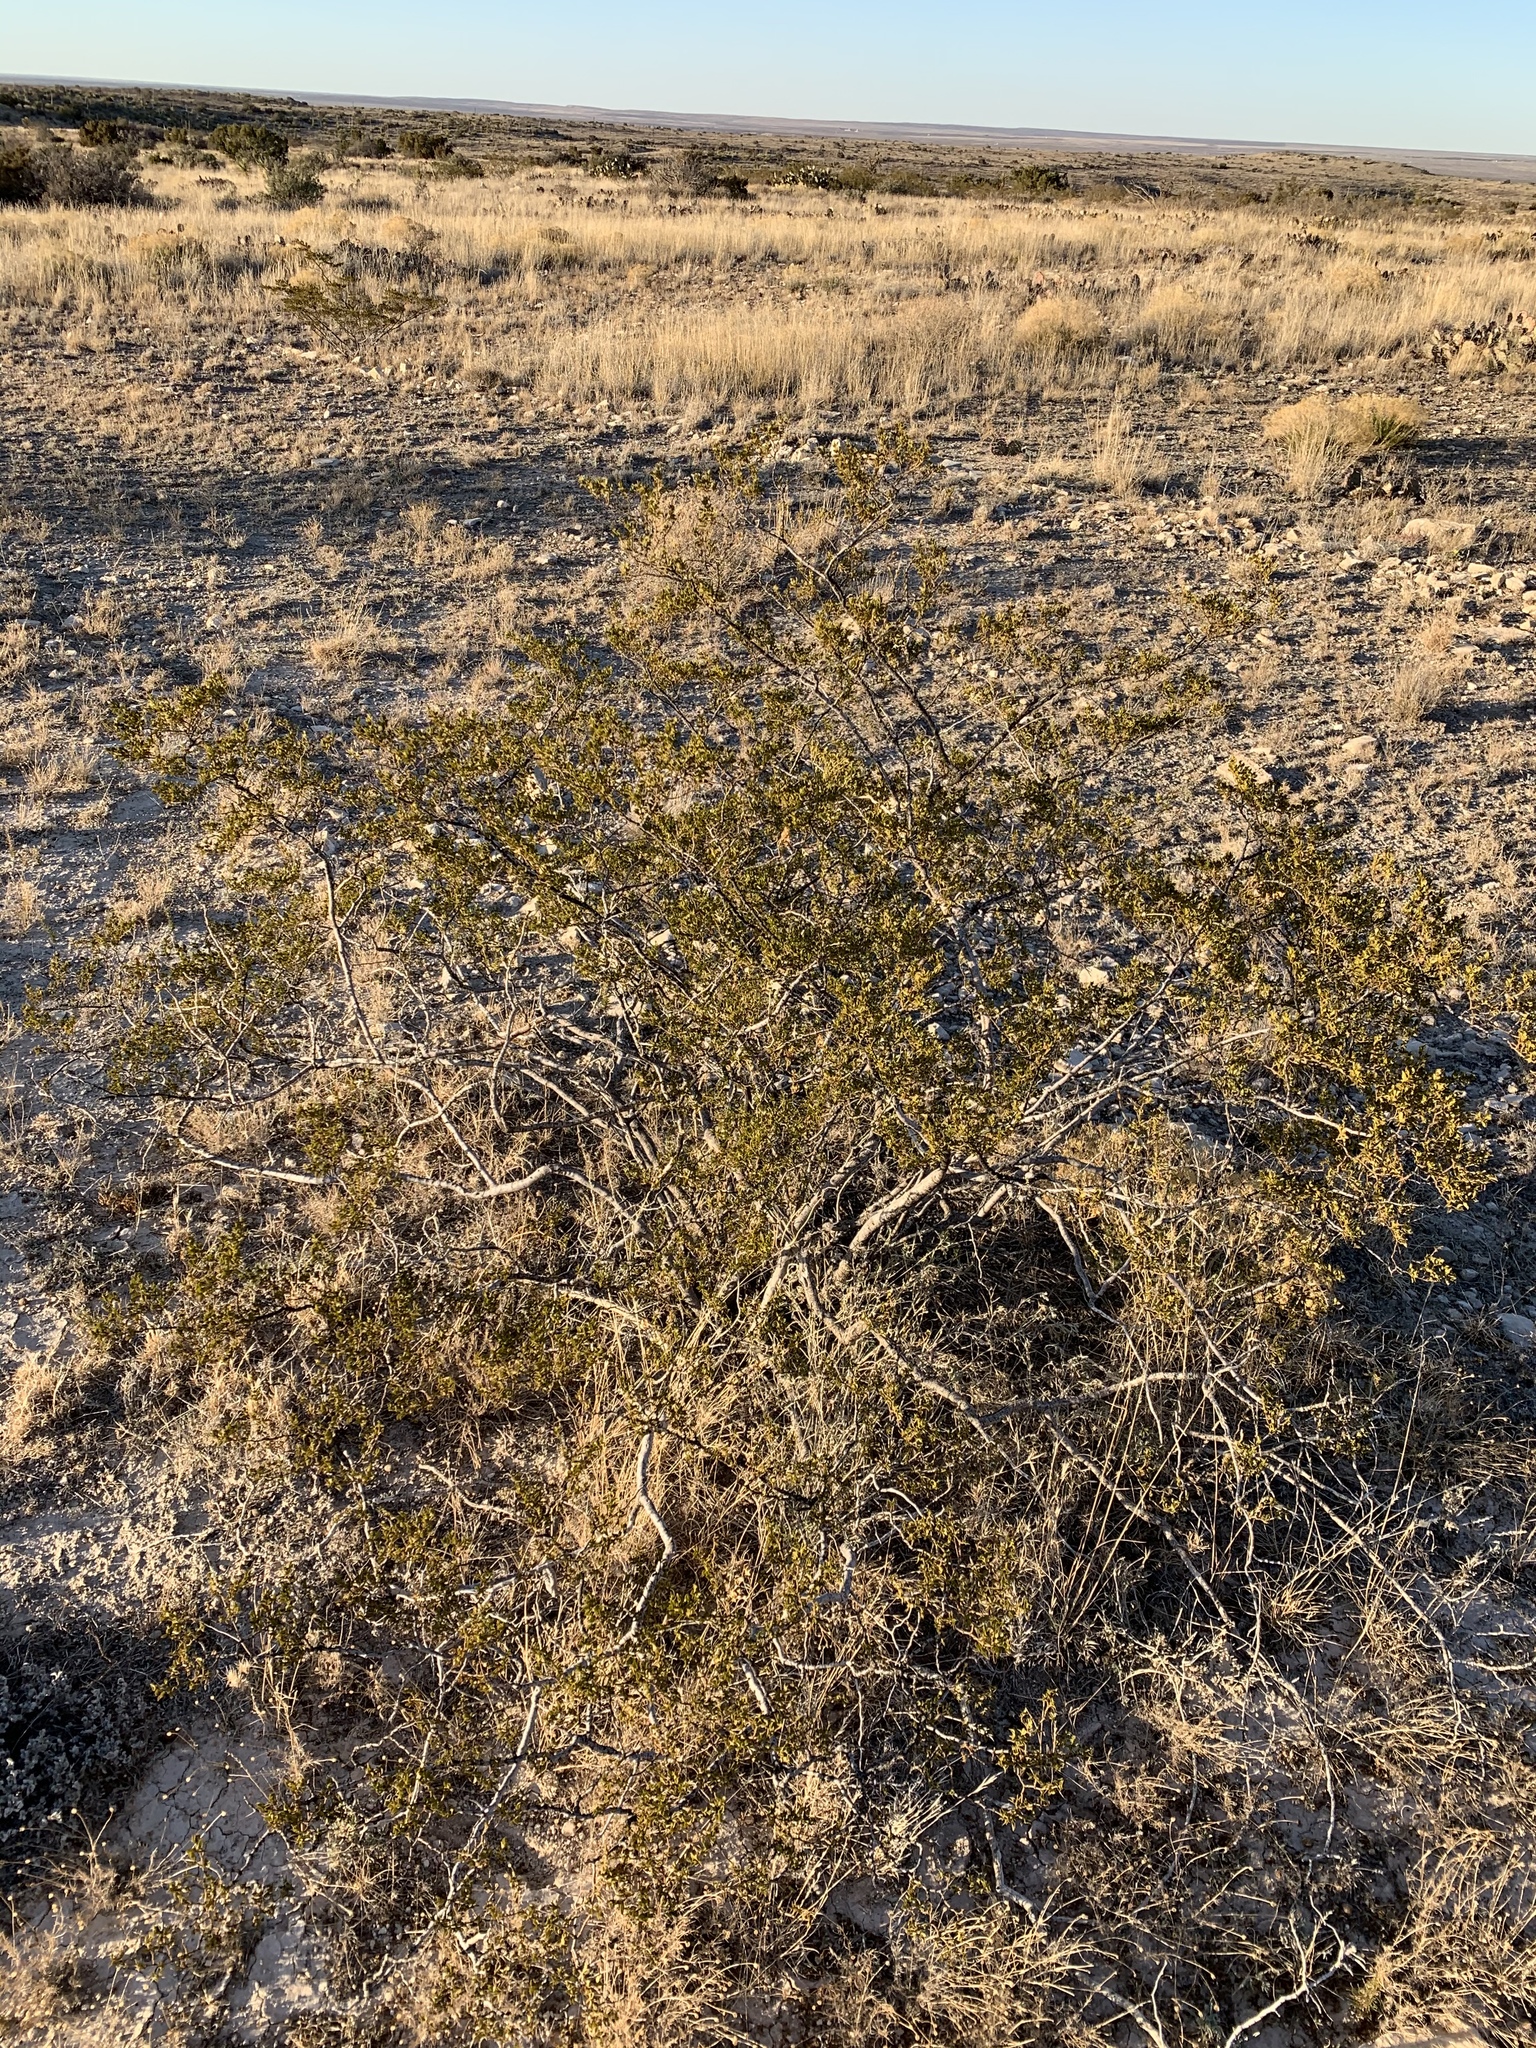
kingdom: Plantae
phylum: Tracheophyta
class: Magnoliopsida
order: Zygophyllales
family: Zygophyllaceae
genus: Larrea
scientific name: Larrea tridentata
